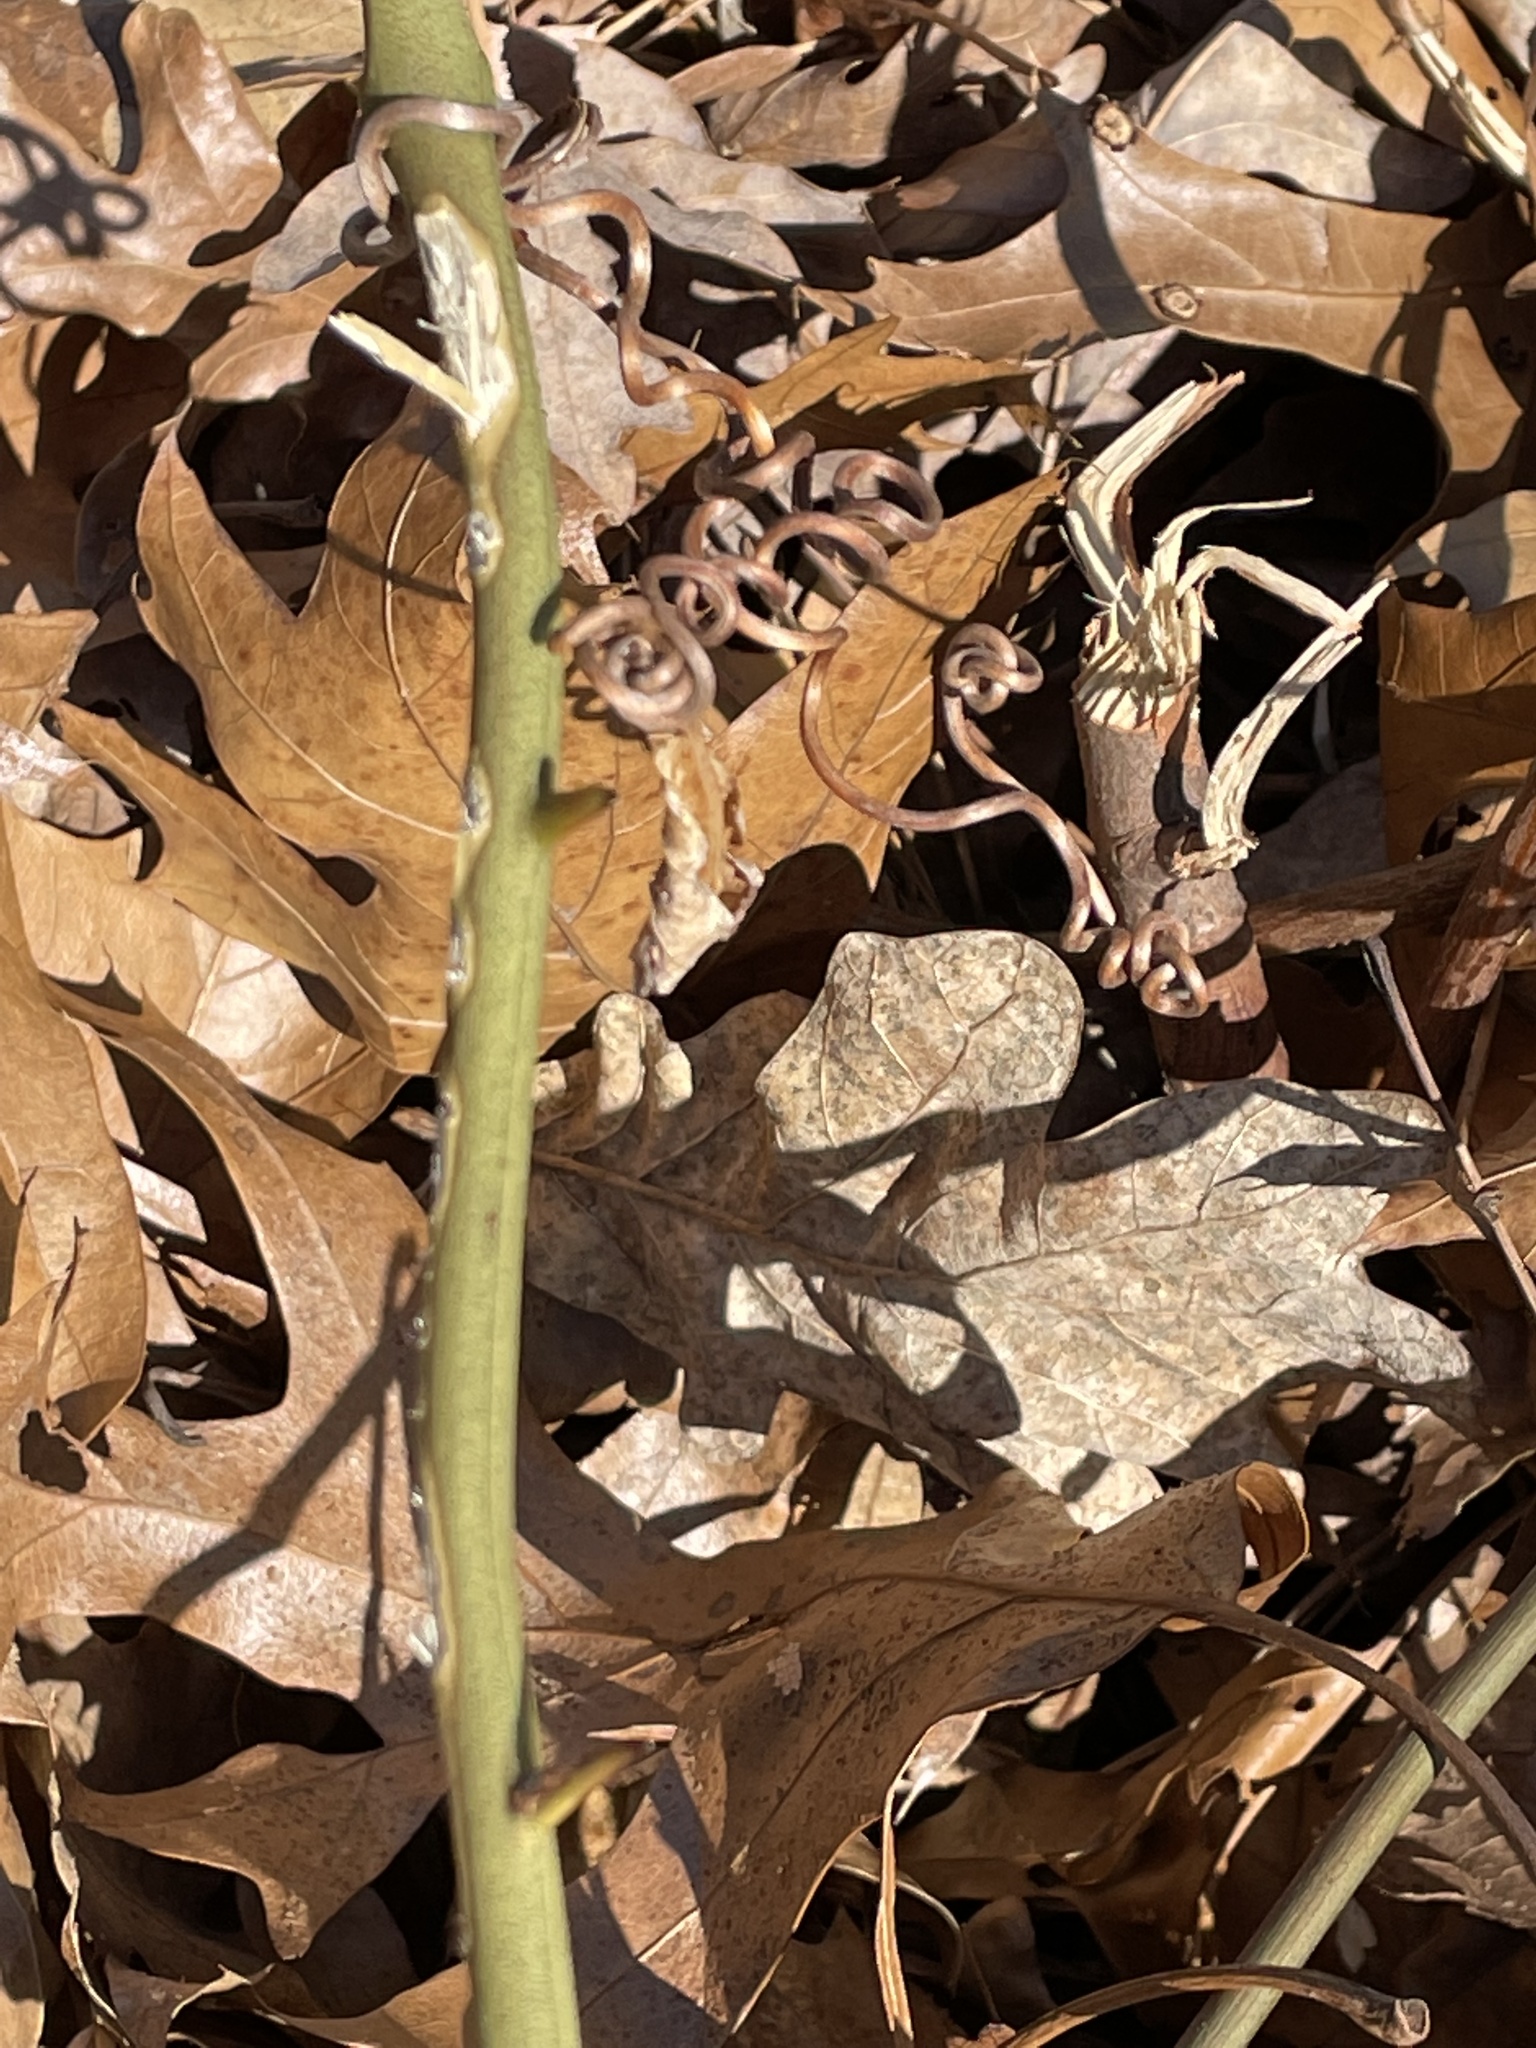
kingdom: Plantae
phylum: Tracheophyta
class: Liliopsida
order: Liliales
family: Smilacaceae
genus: Smilax
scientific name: Smilax rotundifolia
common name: Bullbriar
